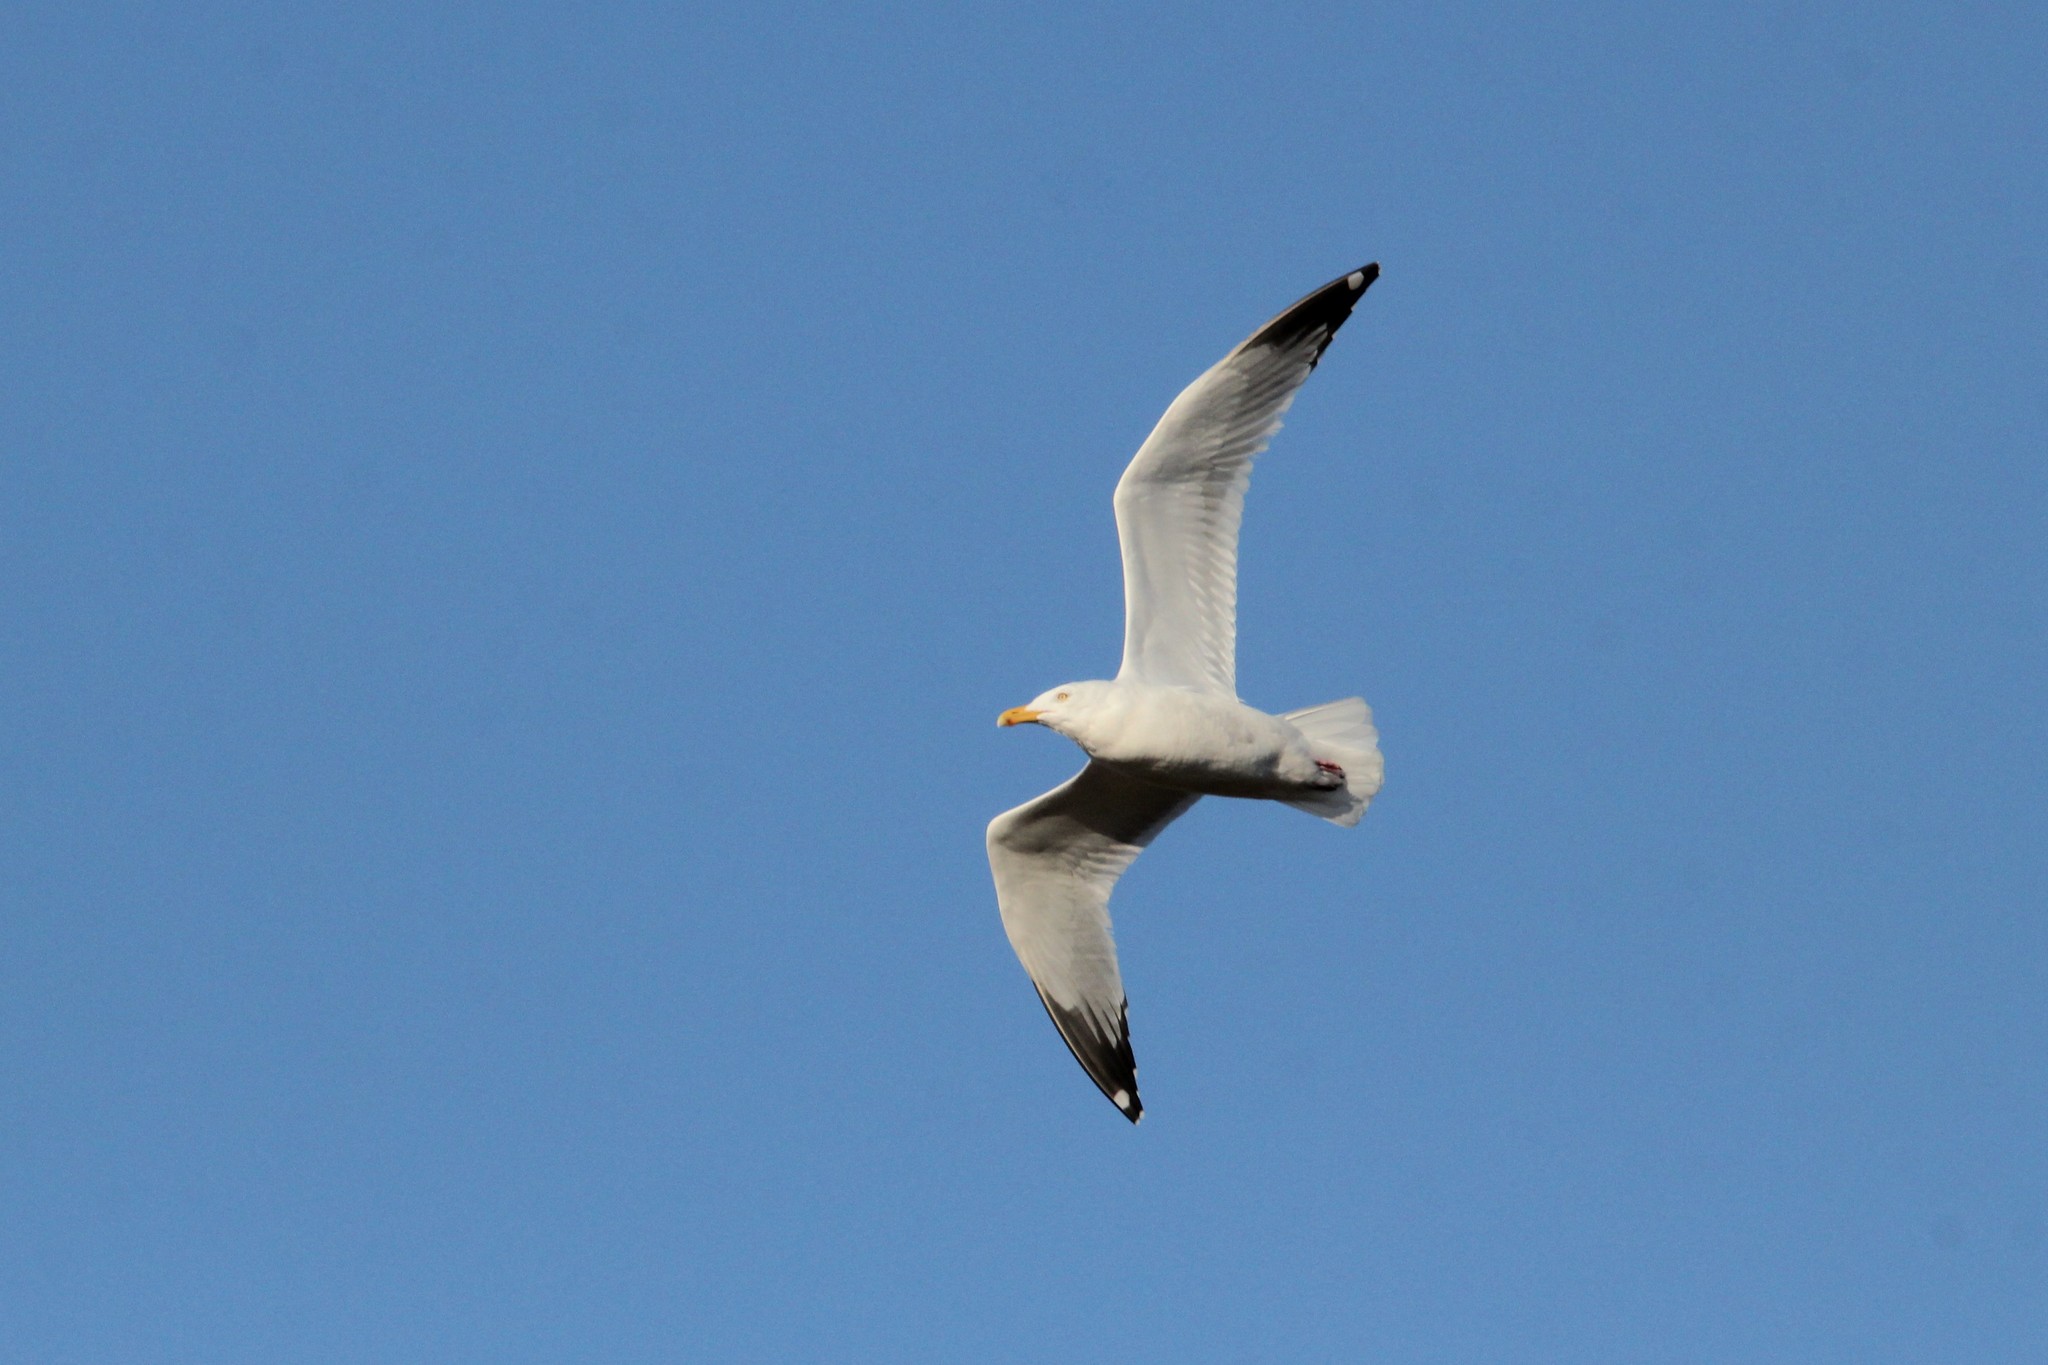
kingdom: Animalia
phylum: Chordata
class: Aves
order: Charadriiformes
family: Laridae
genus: Larus
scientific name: Larus argentatus
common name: Herring gull
